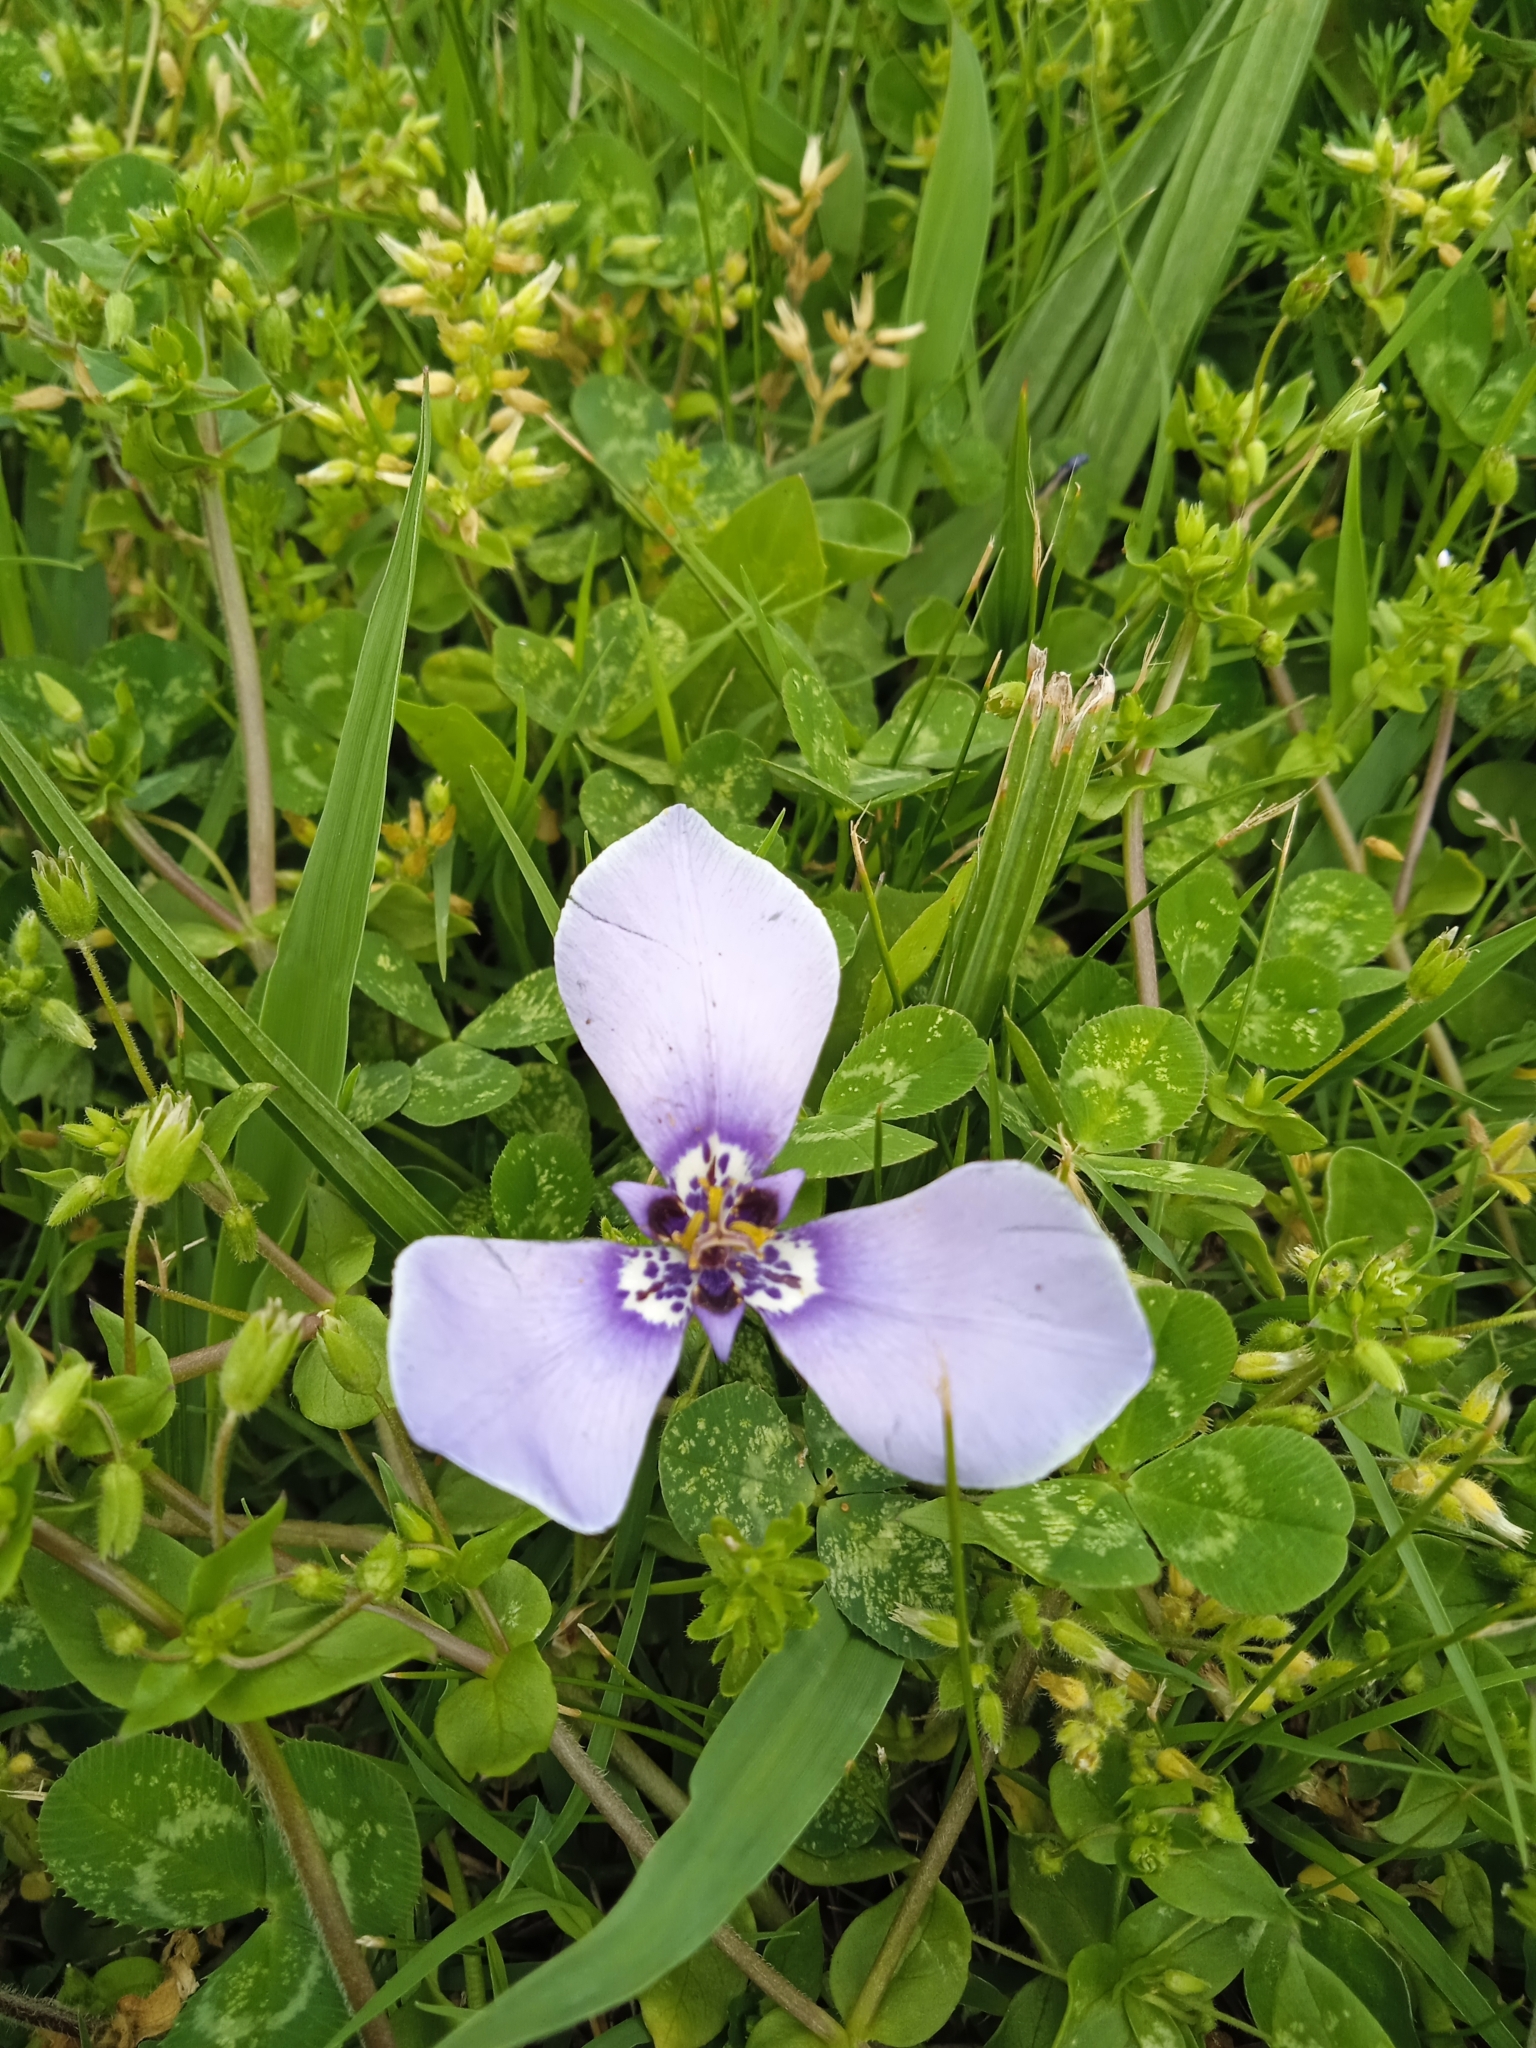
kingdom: Plantae
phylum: Tracheophyta
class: Liliopsida
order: Asparagales
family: Iridaceae
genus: Herbertia
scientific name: Herbertia lahue
